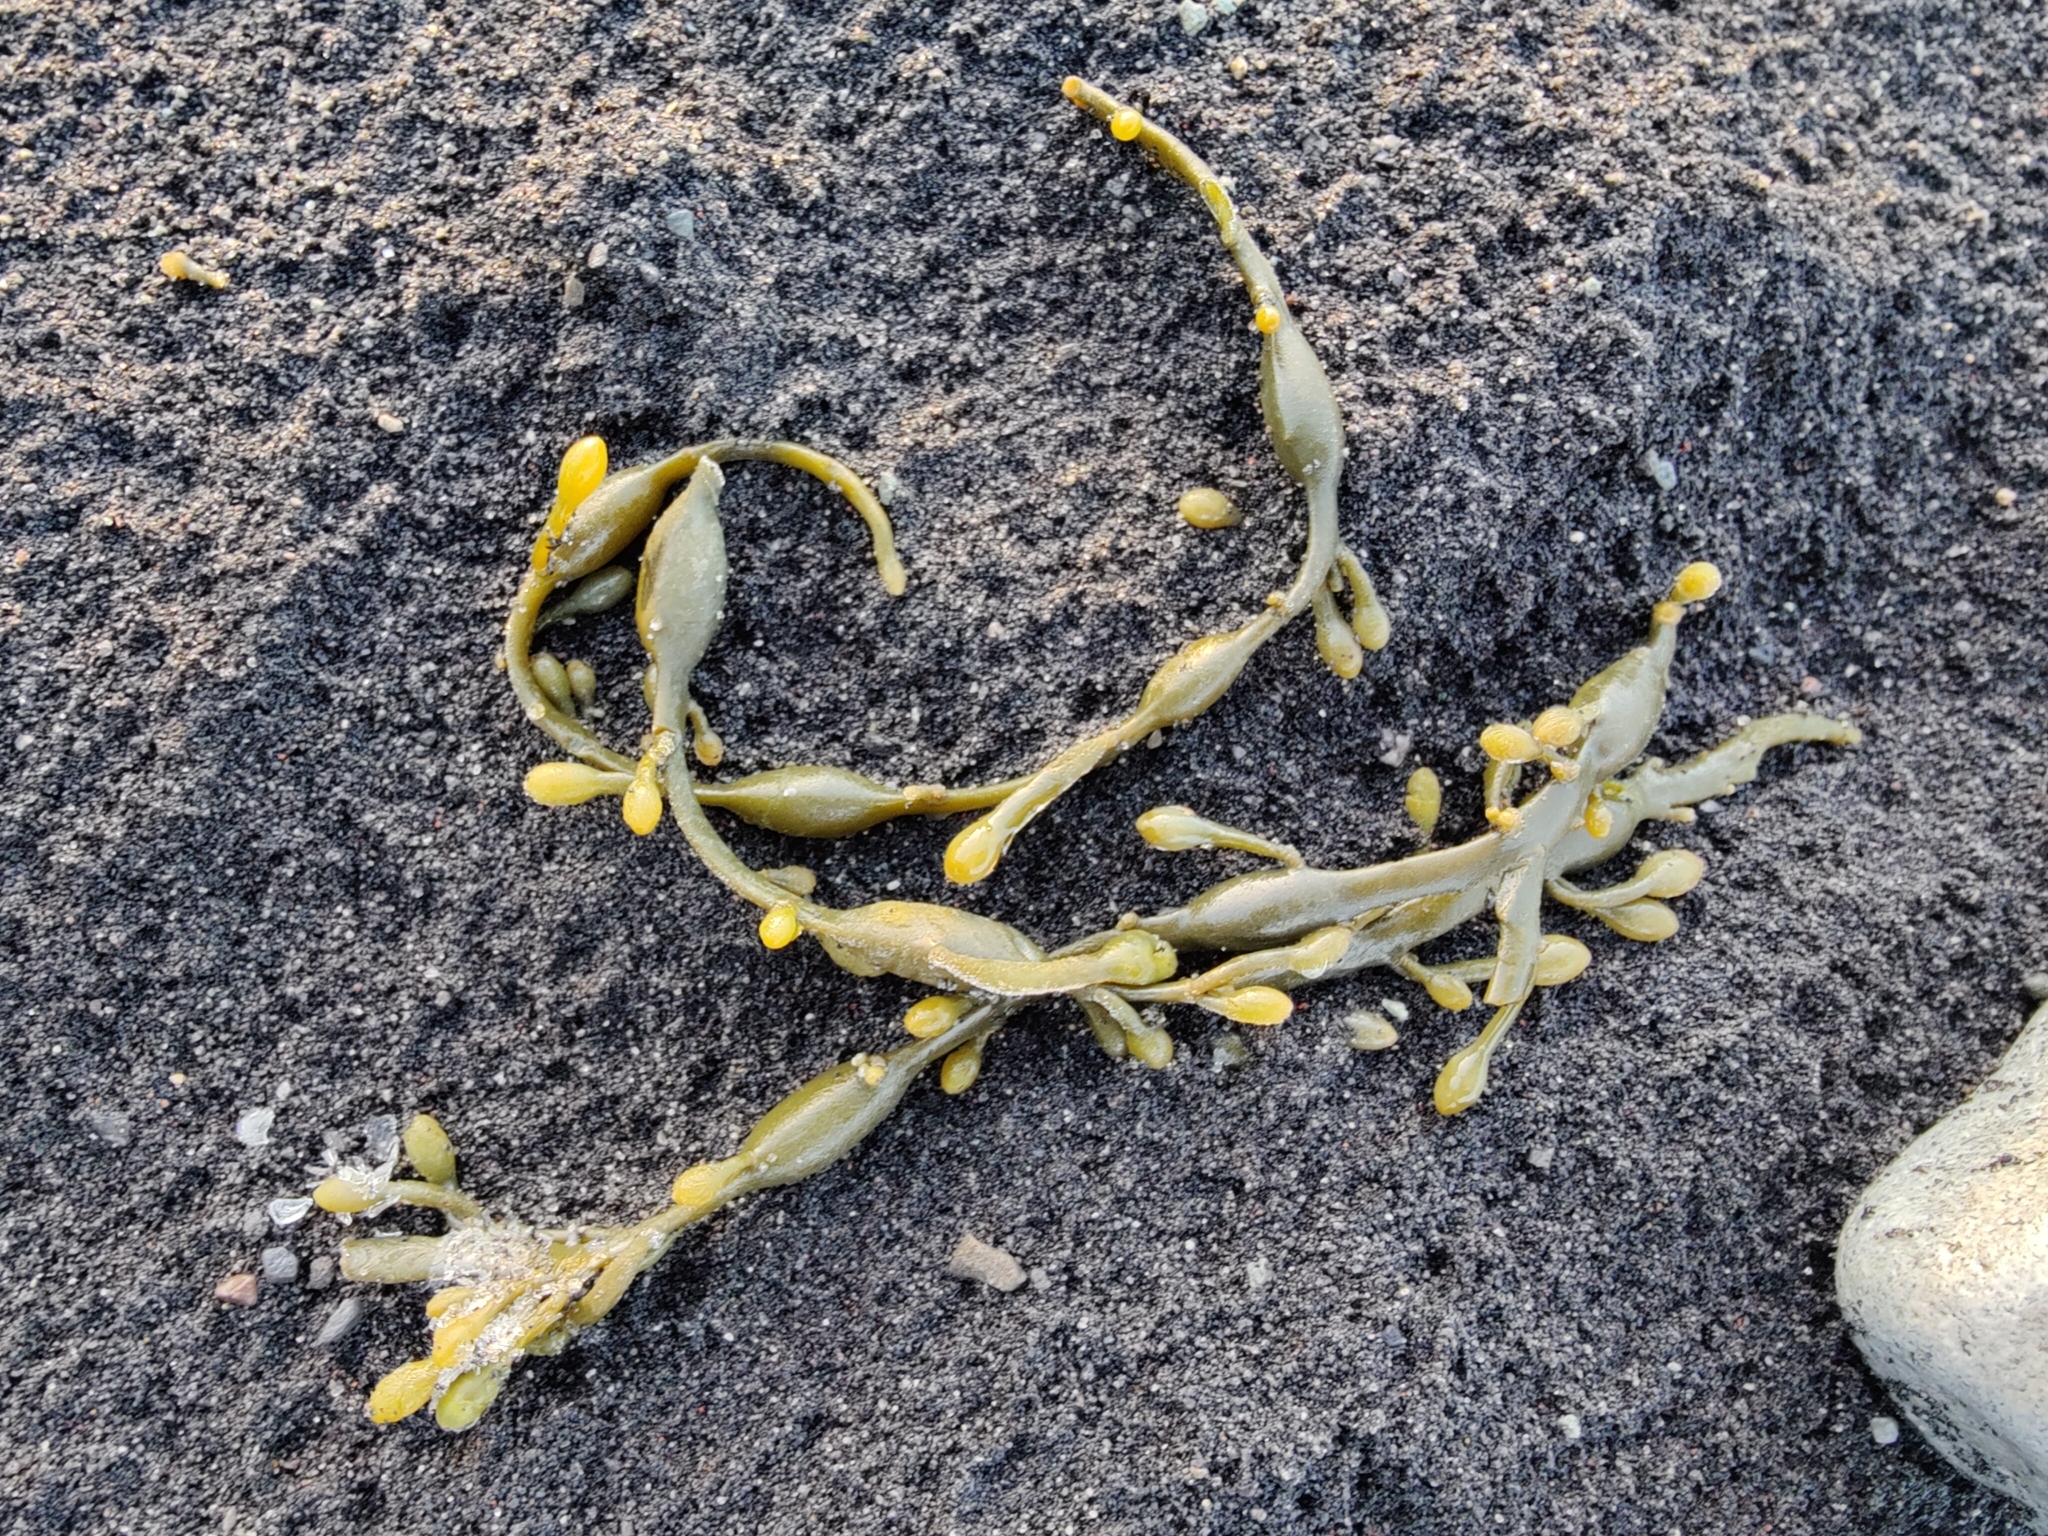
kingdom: Chromista
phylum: Ochrophyta
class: Phaeophyceae
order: Fucales
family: Fucaceae
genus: Ascophyllum
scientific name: Ascophyllum nodosum
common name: Knotted wrack
